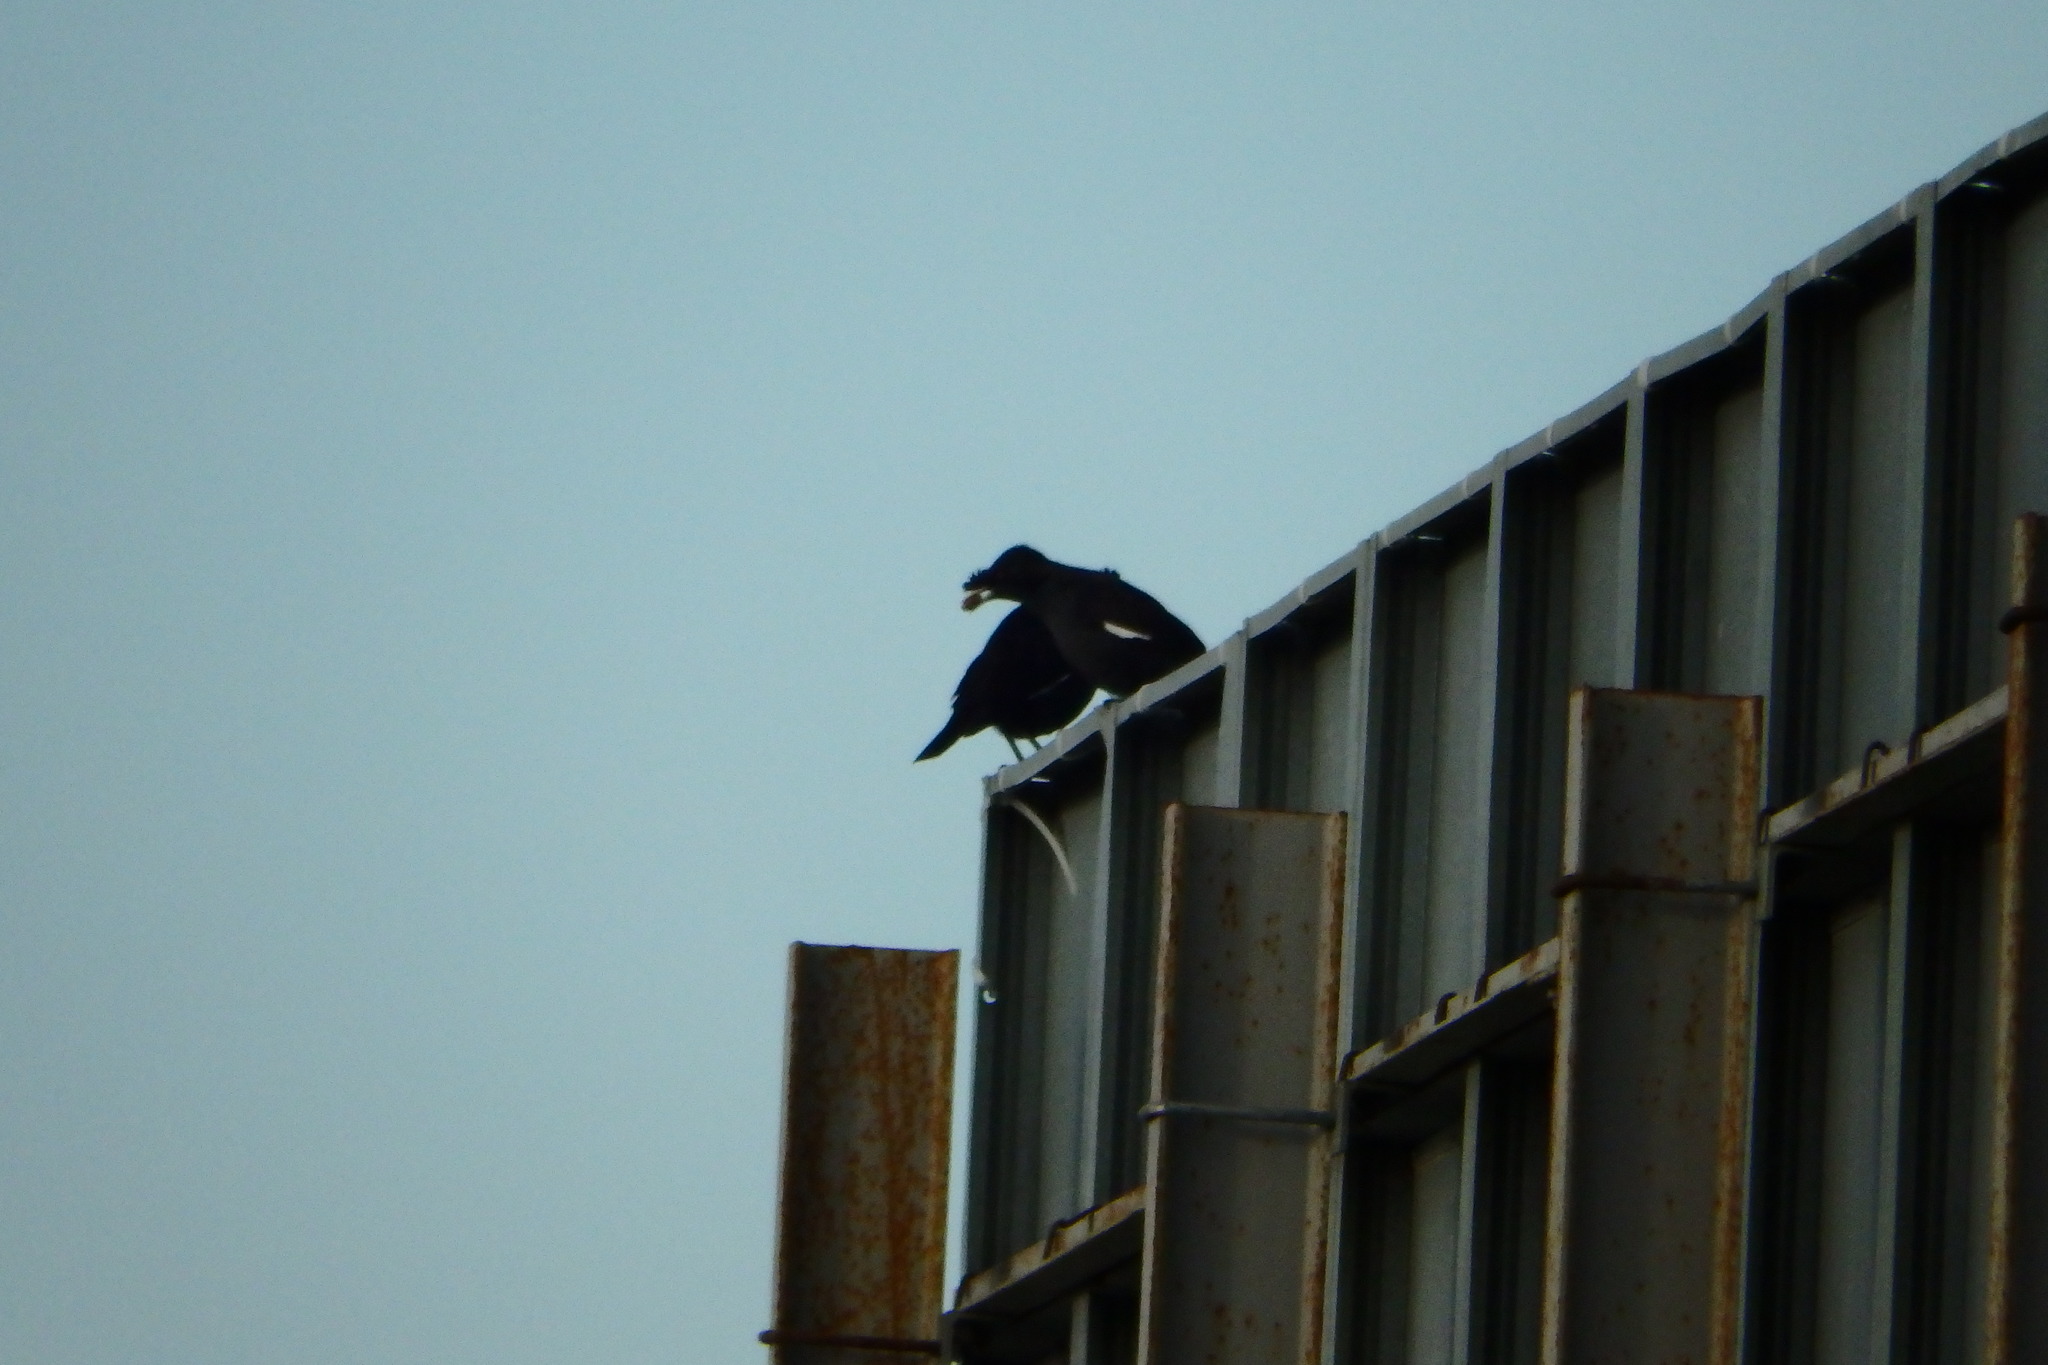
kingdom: Animalia
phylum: Chordata
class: Aves
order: Passeriformes
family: Sturnidae
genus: Acridotheres
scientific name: Acridotheres cristatellus
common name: Crested myna
